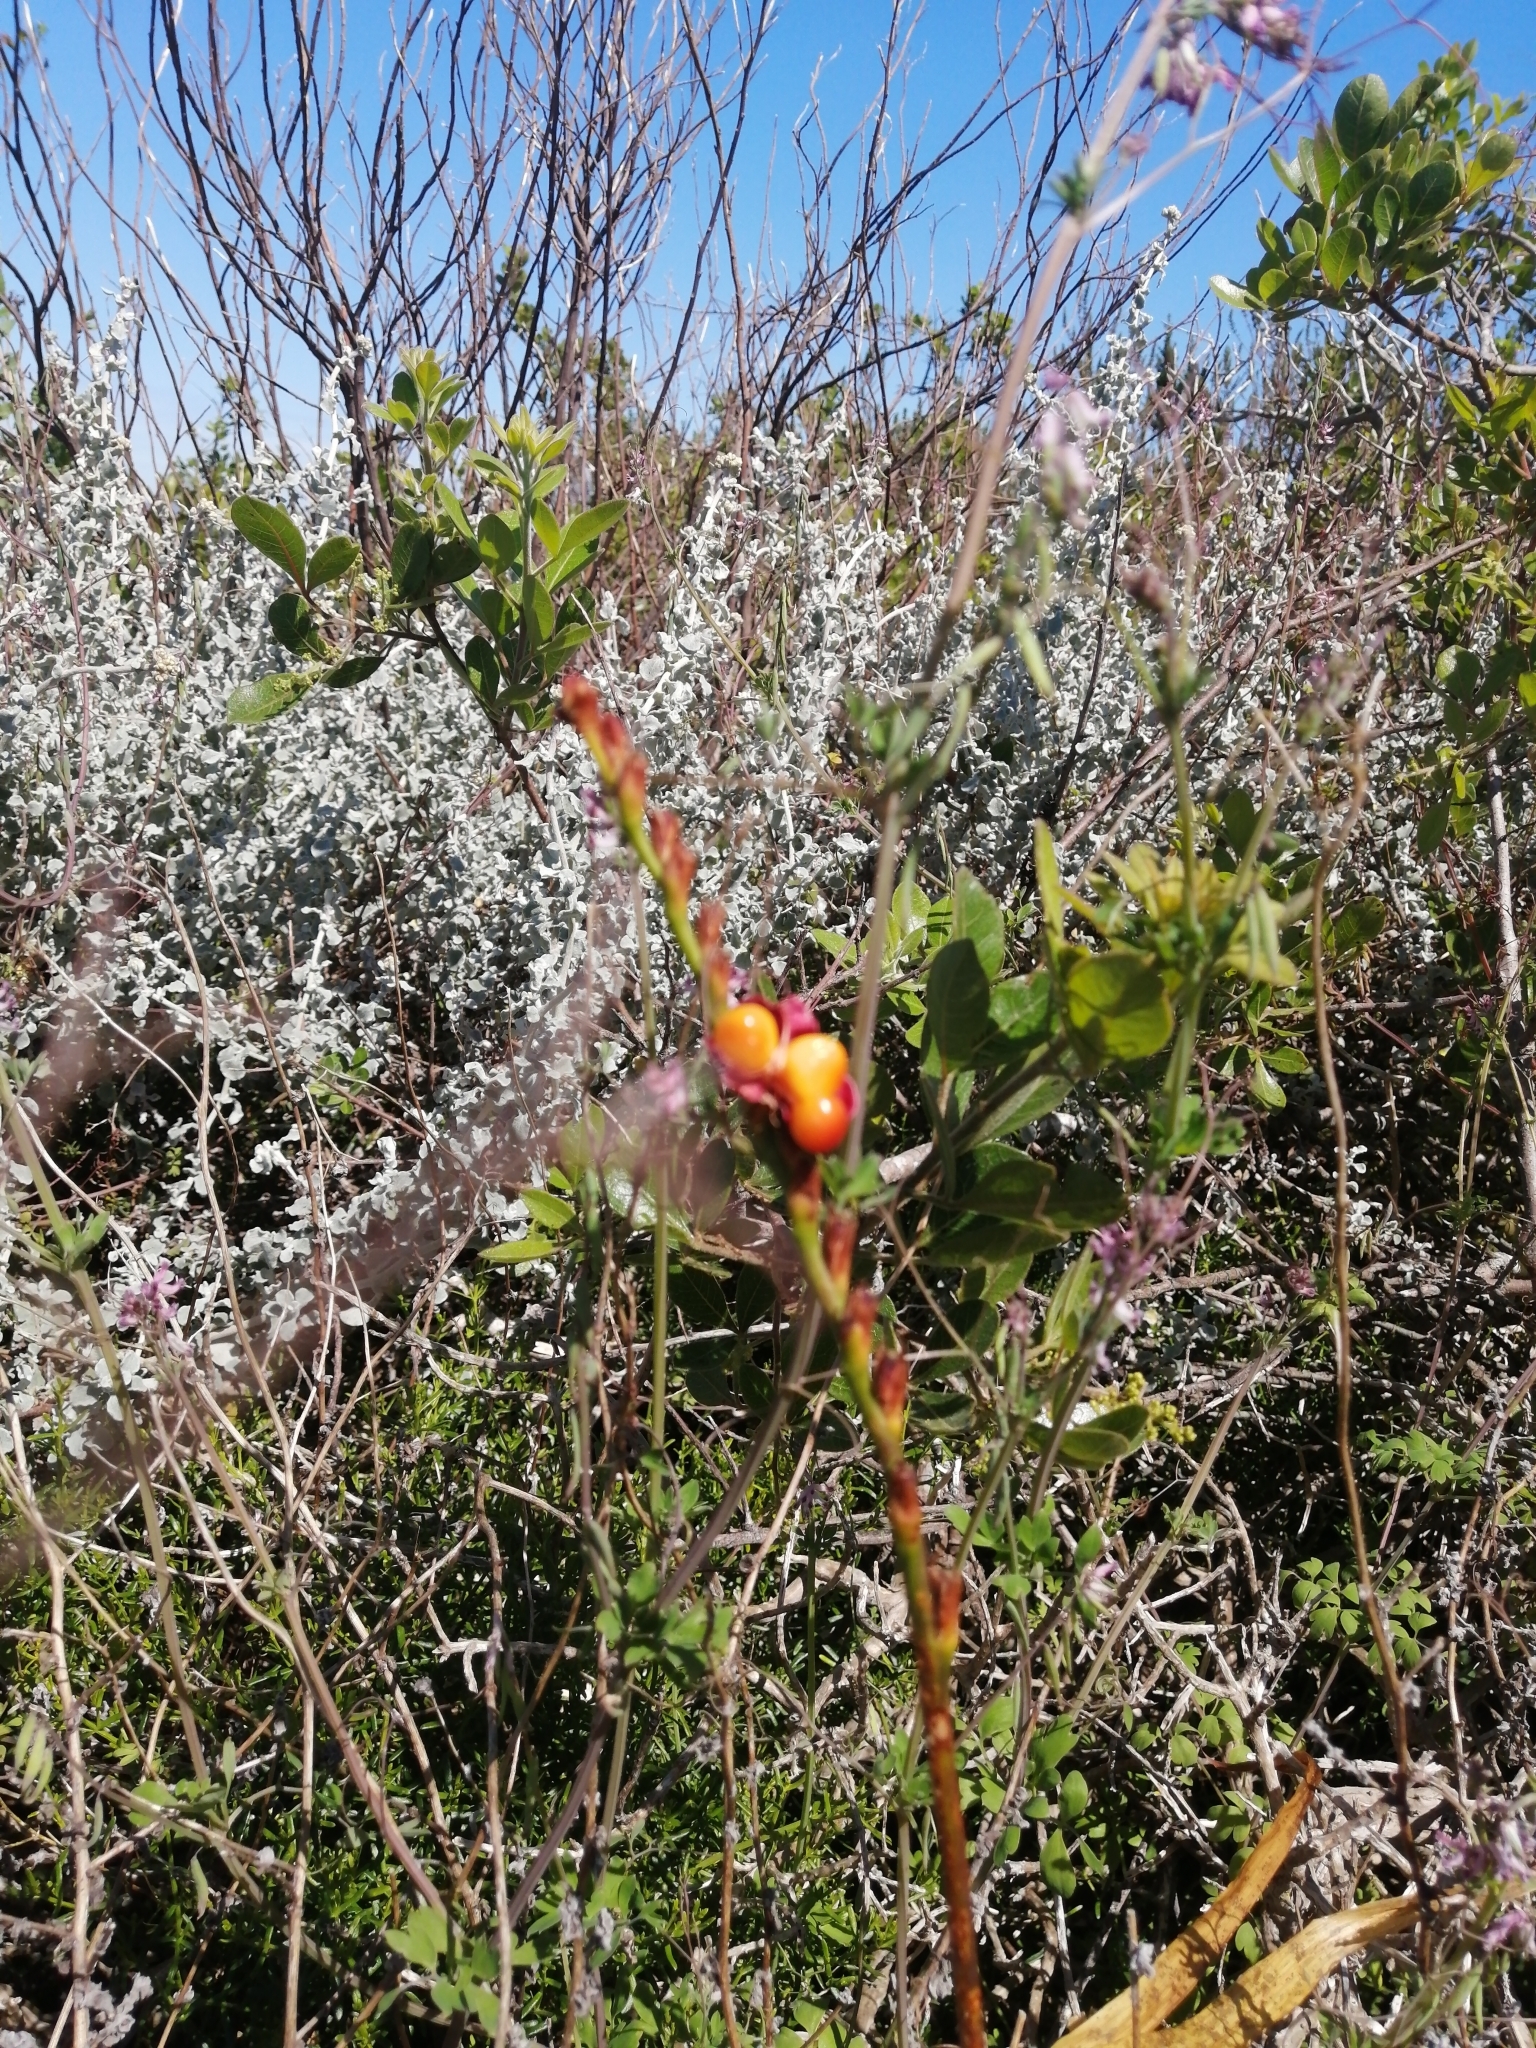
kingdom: Plantae
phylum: Tracheophyta
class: Liliopsida
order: Asparagales
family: Iridaceae
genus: Chasmanthe
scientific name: Chasmanthe aethiopica
